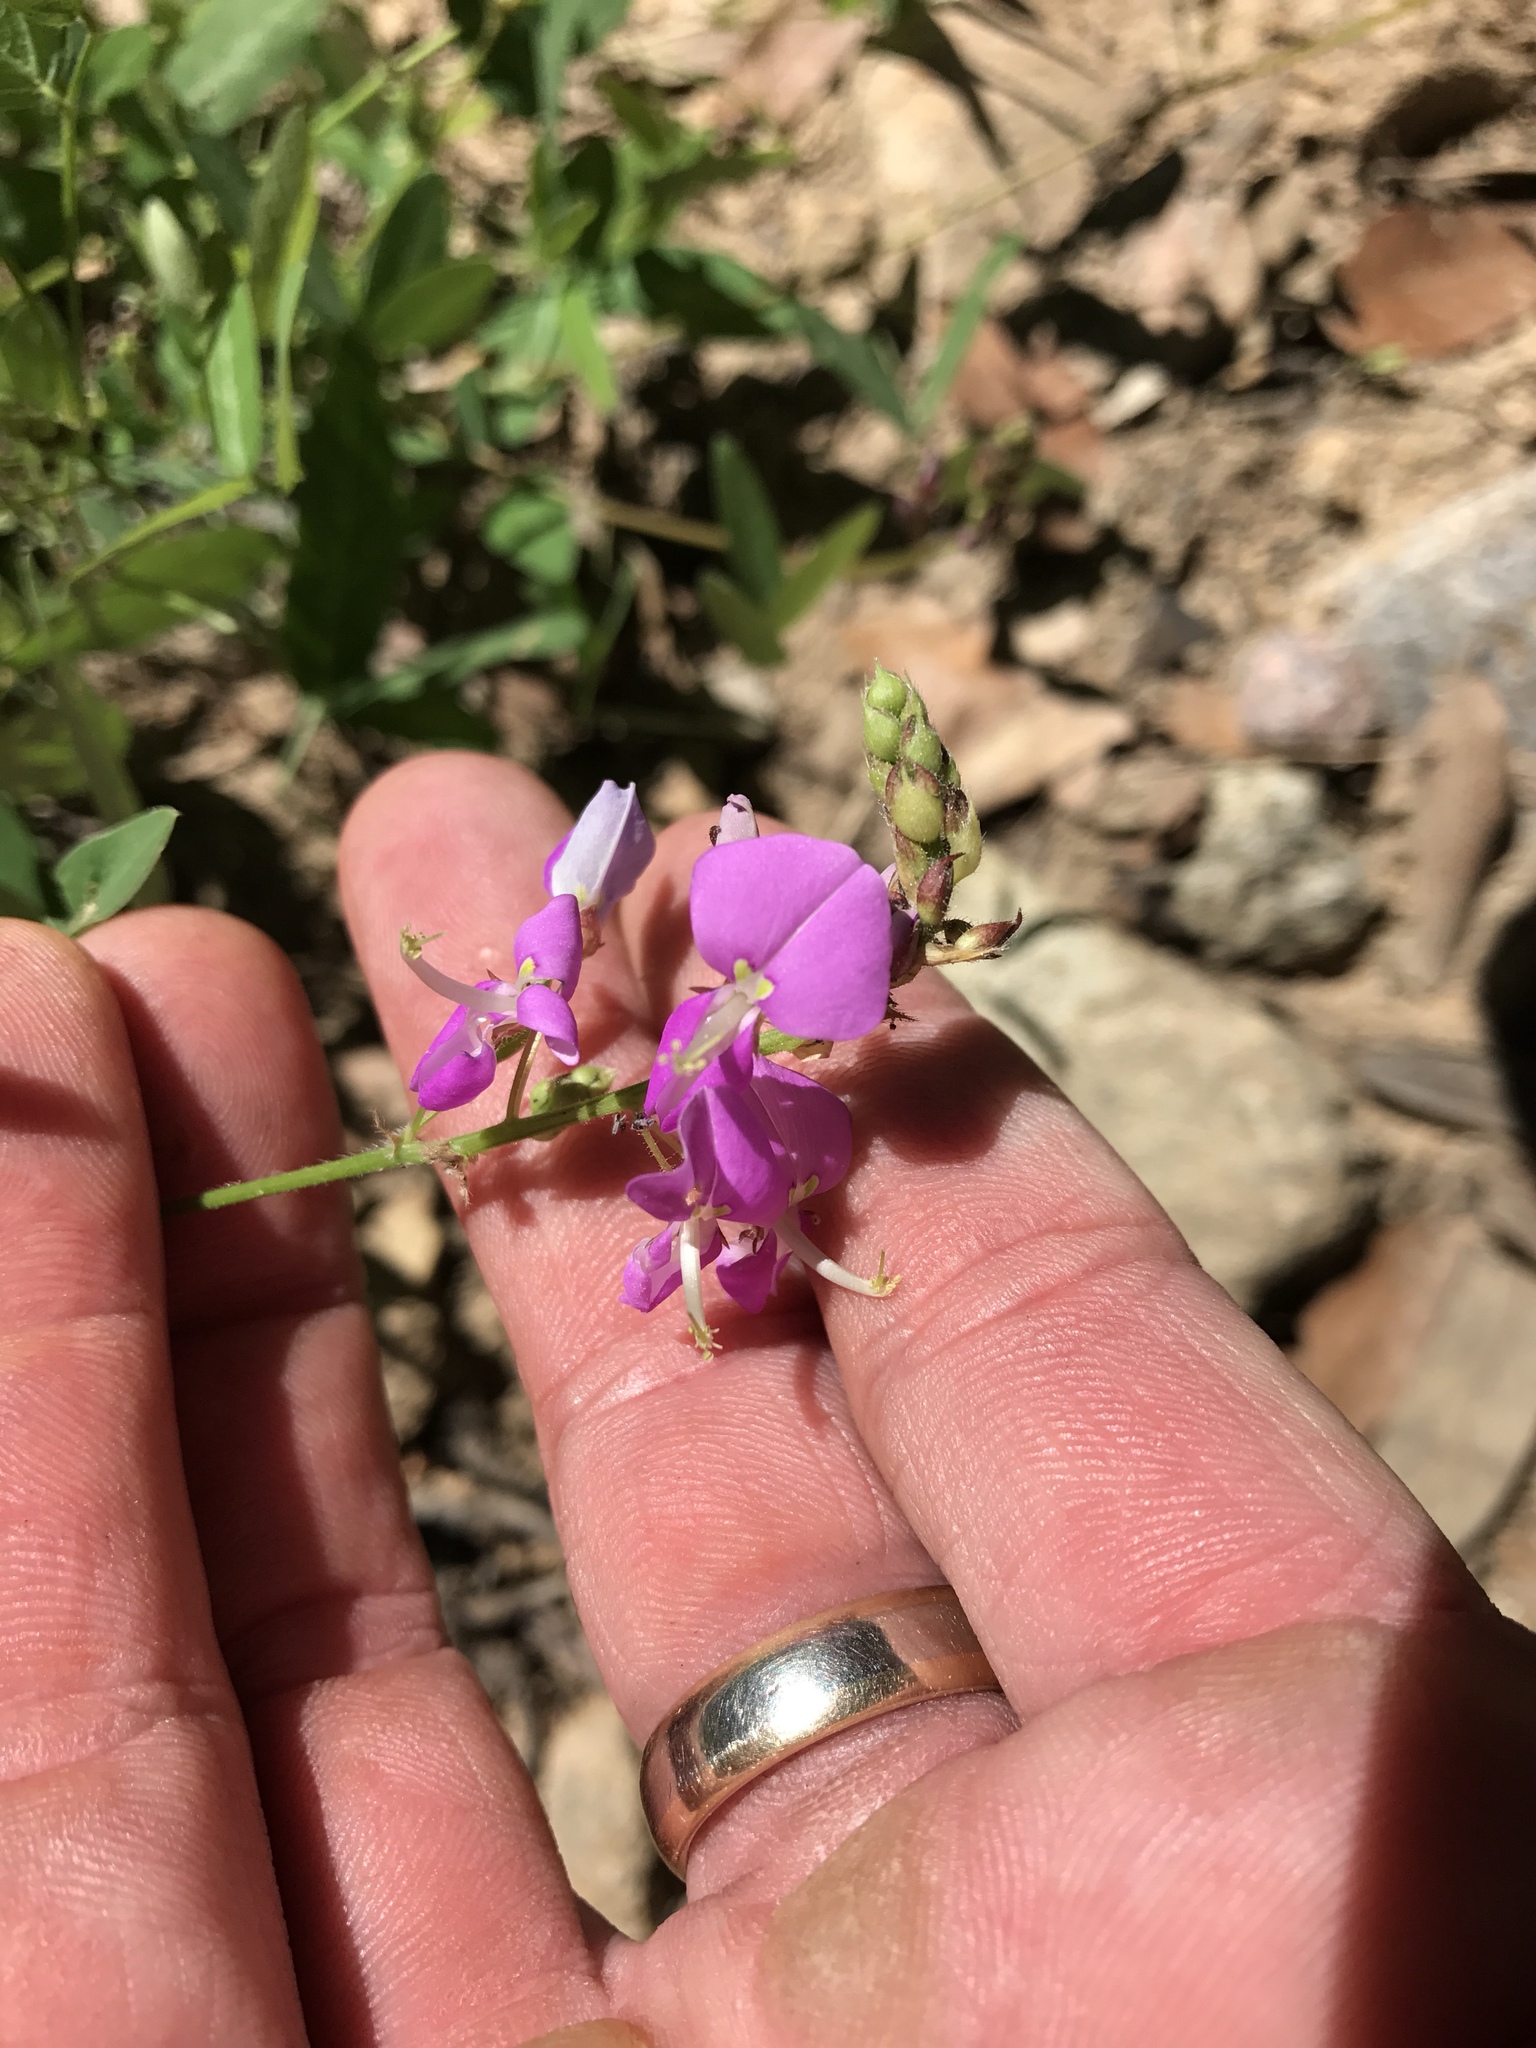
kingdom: Plantae
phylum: Tracheophyta
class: Magnoliopsida
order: Fabales
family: Fabaceae
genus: Desmodium
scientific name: Desmodium batocaulon
